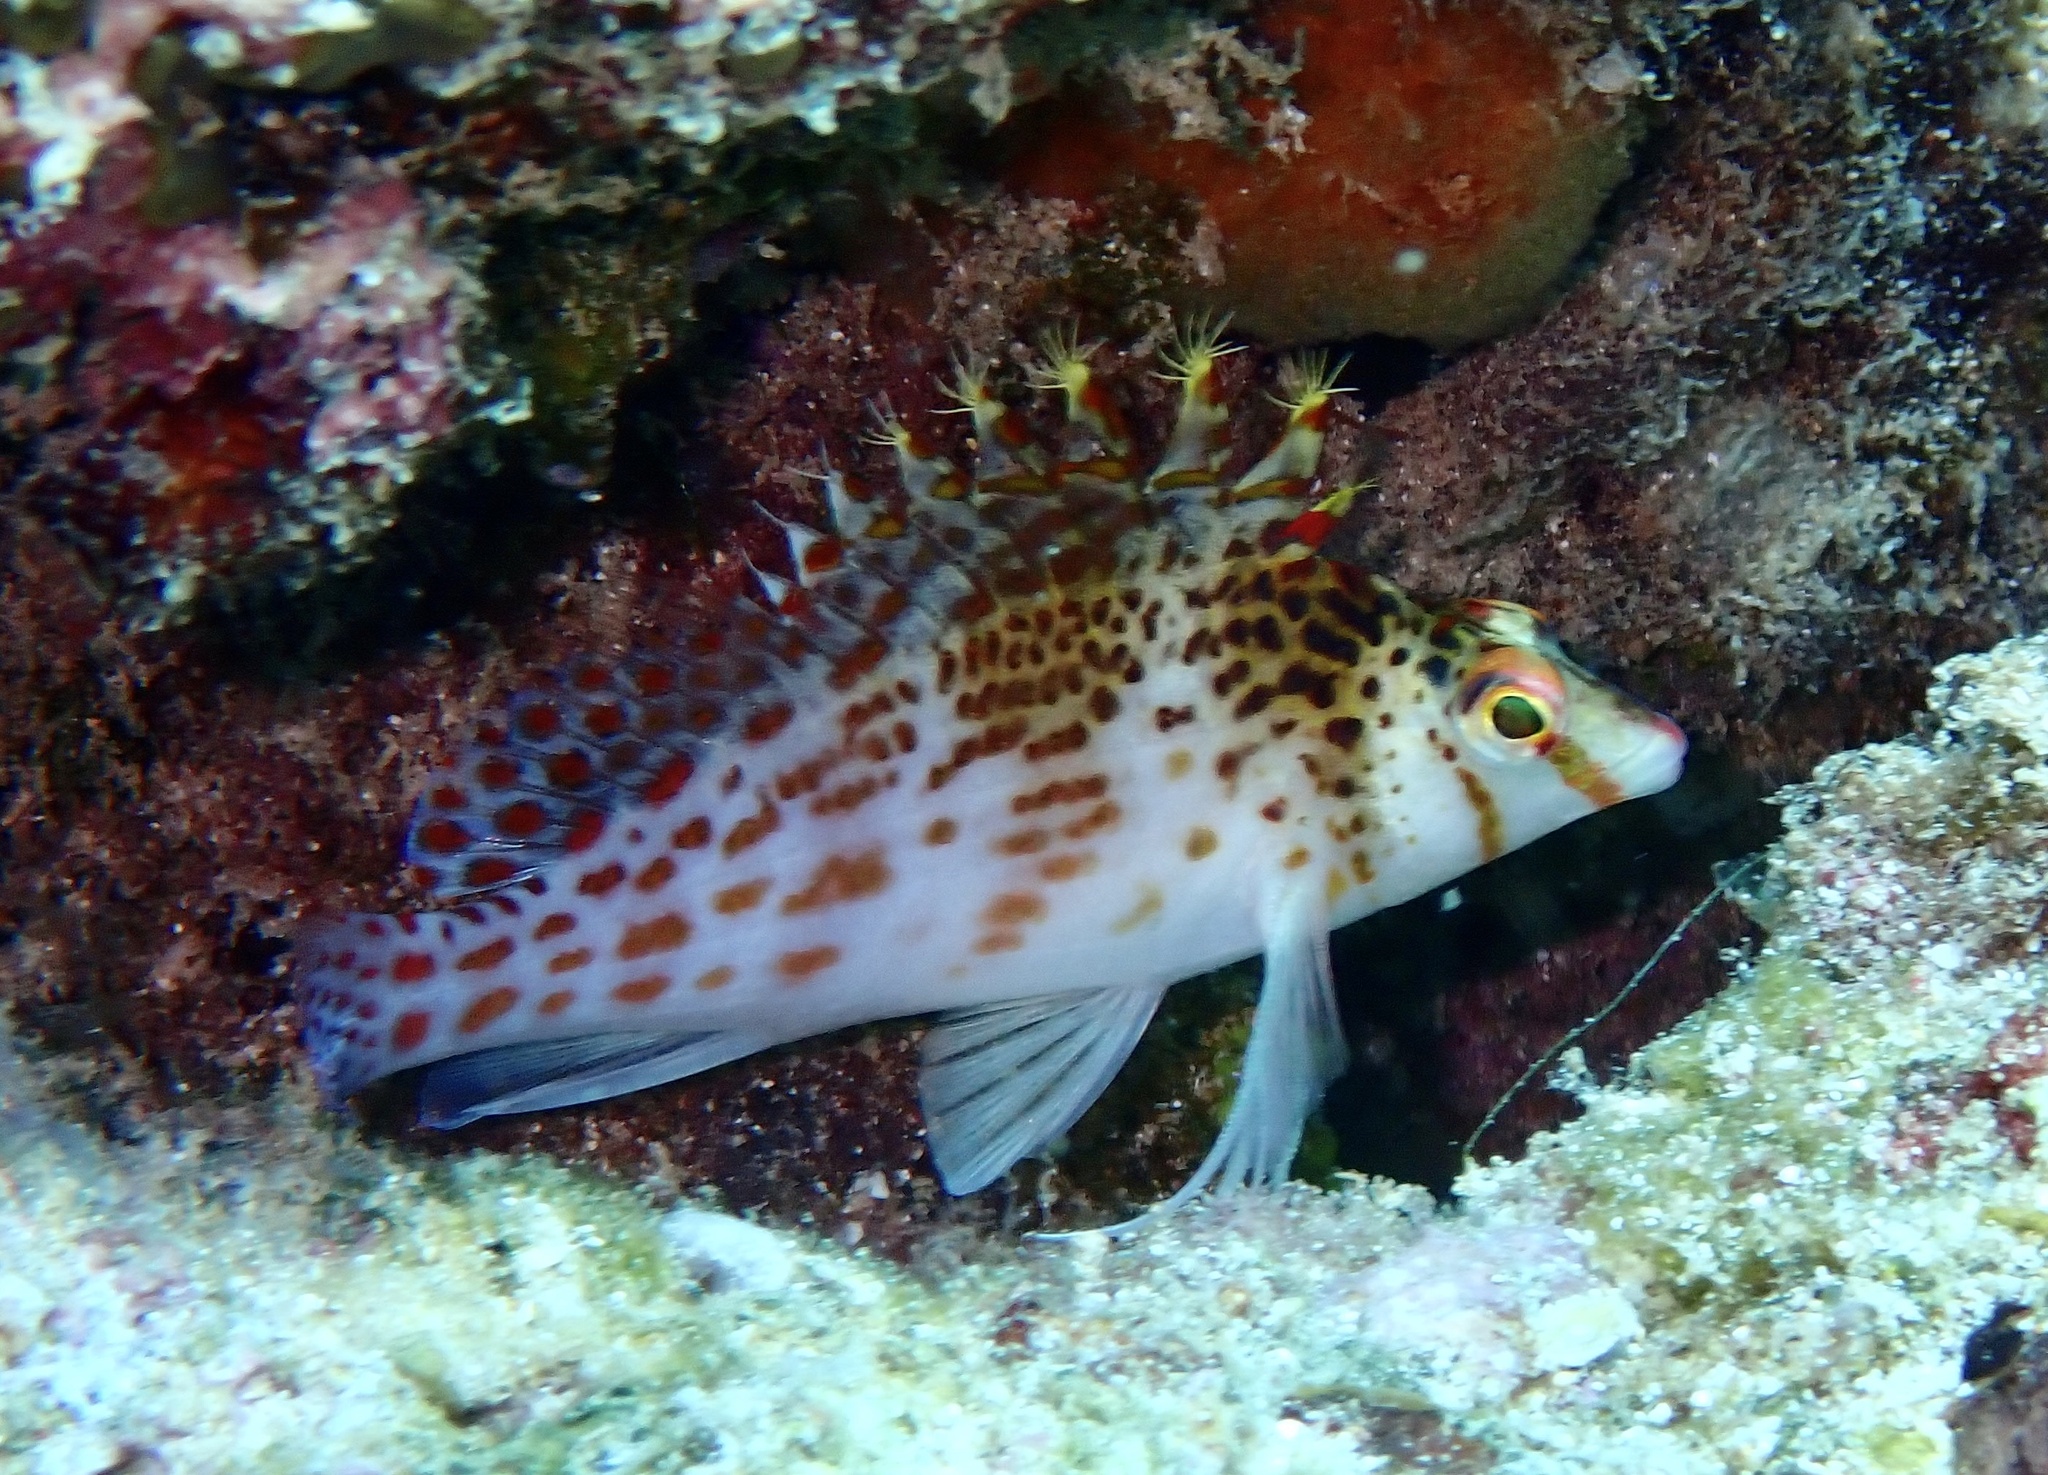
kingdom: Animalia
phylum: Chordata
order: Perciformes
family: Cirrhitidae
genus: Cirrhitichthys
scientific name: Cirrhitichthys falco
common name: Coral hawkfish
